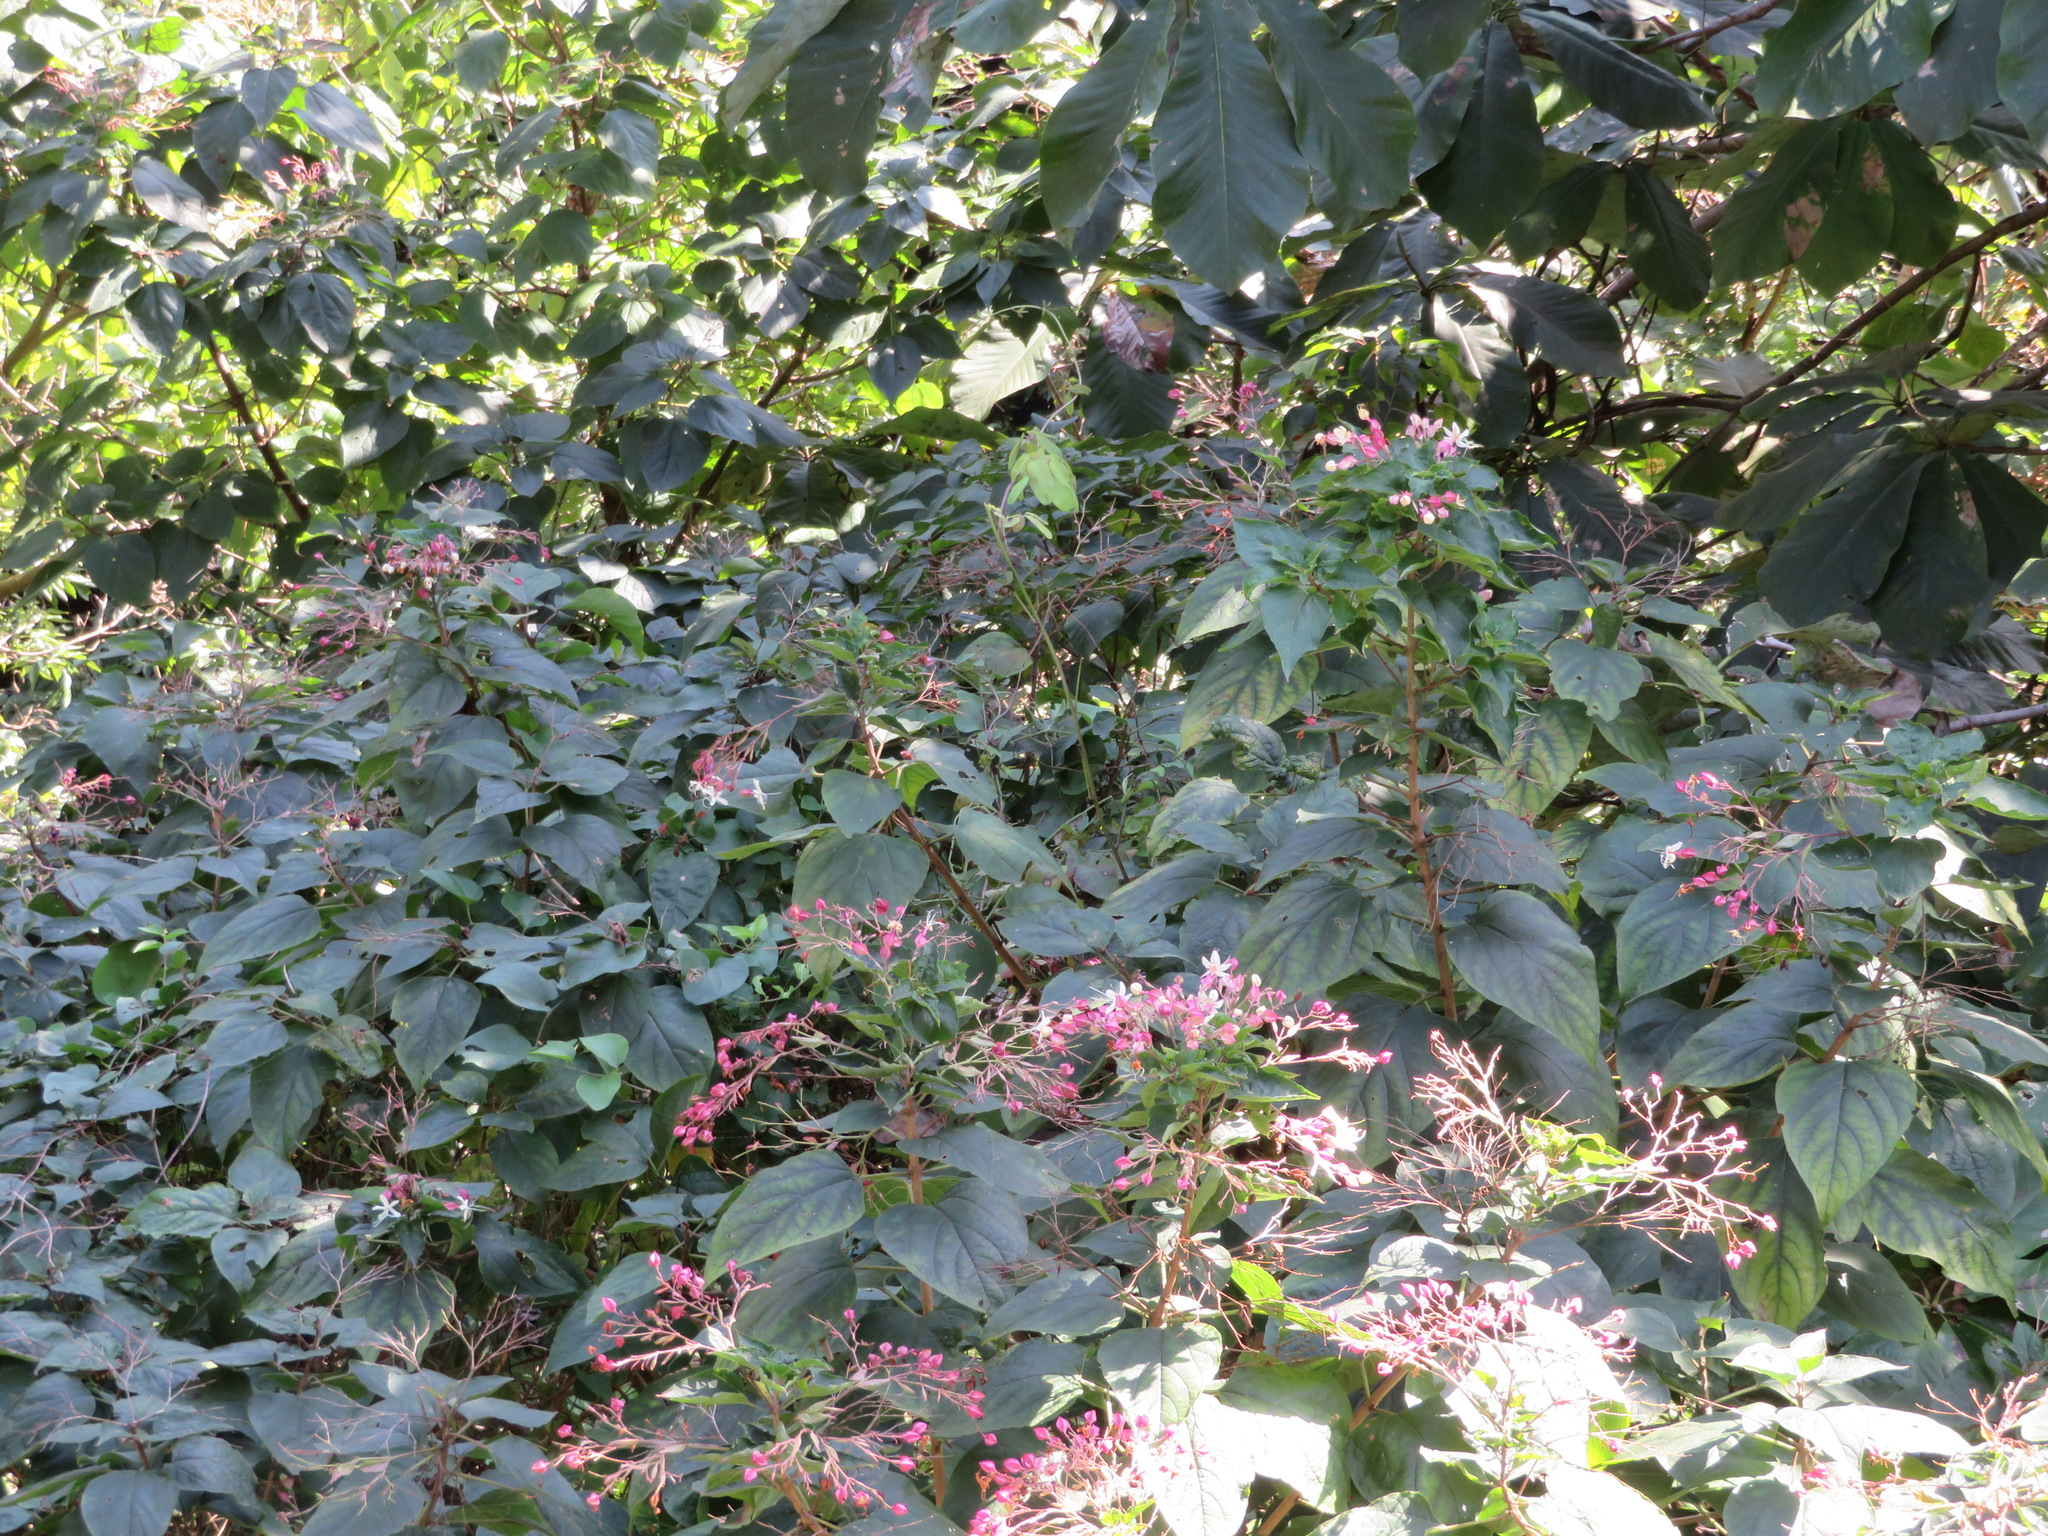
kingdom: Plantae
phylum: Tracheophyta
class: Magnoliopsida
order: Lamiales
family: Lamiaceae
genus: Clerodendrum
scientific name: Clerodendrum trichotomum
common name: Harlequin glorybower
